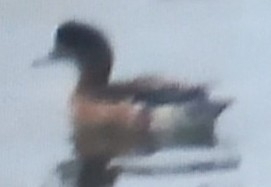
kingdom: Animalia
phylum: Chordata
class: Aves
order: Anseriformes
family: Anatidae
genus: Mareca
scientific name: Mareca penelope
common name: Eurasian wigeon
